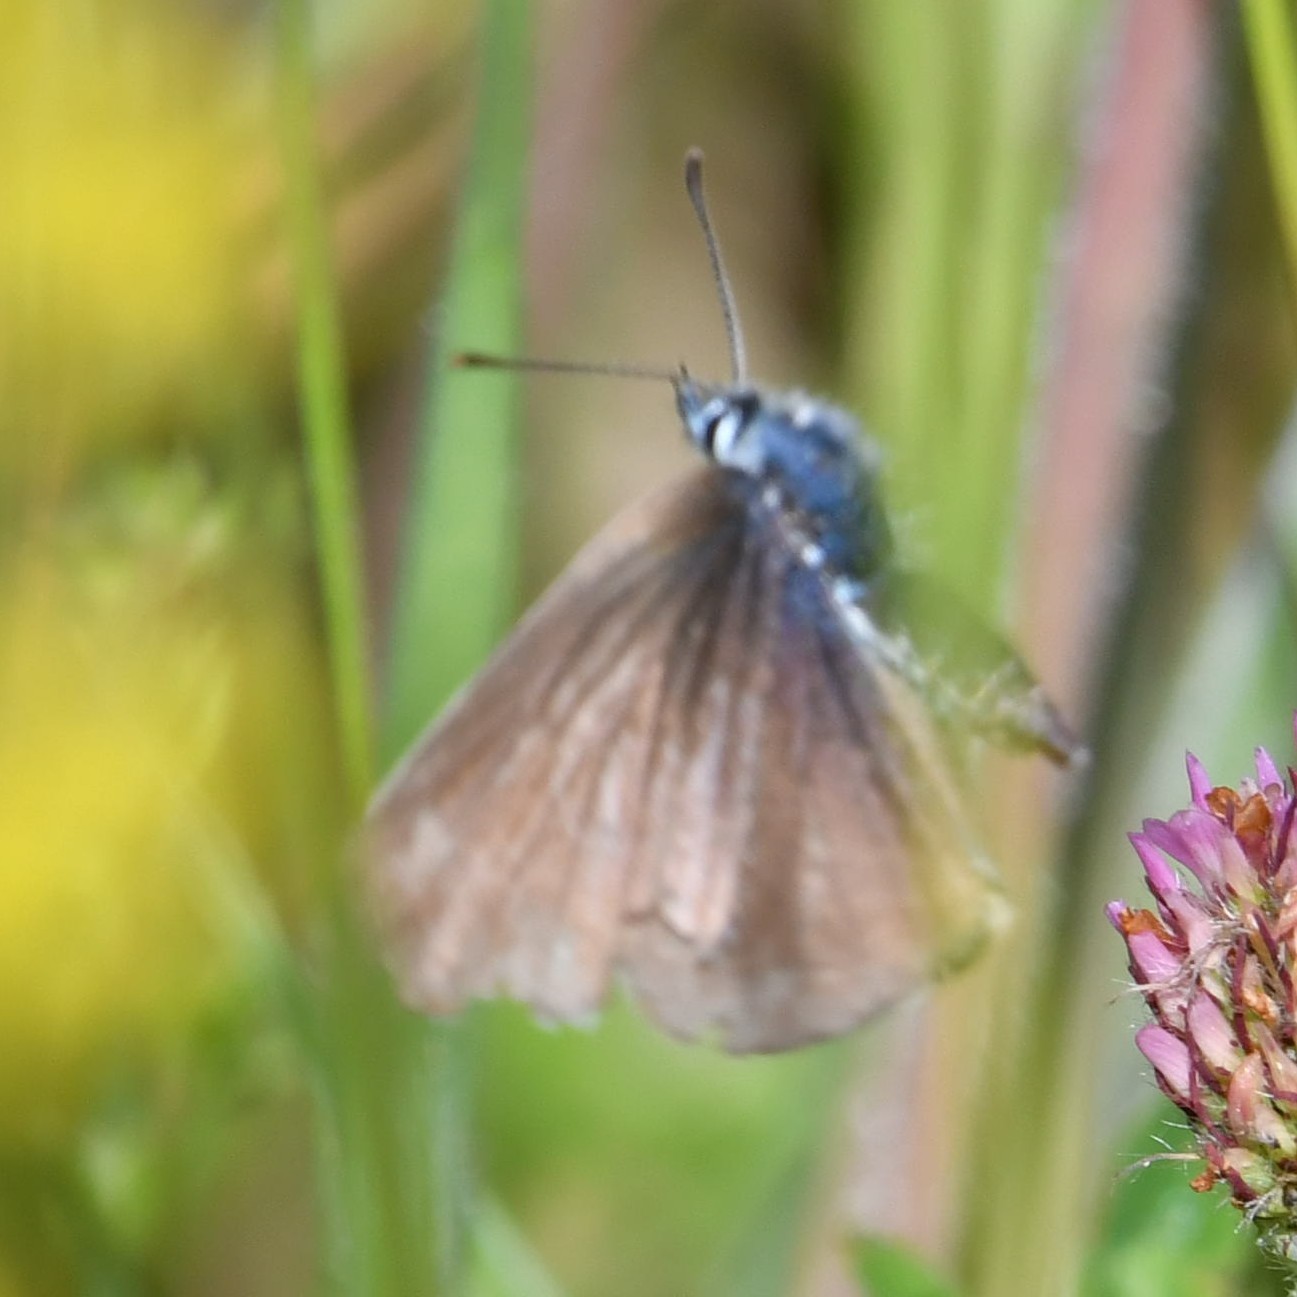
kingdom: Animalia
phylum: Arthropoda
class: Insecta
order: Lepidoptera
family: Lycaenidae
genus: Cyaniris
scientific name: Cyaniris semiargus
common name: Mazarine blue
